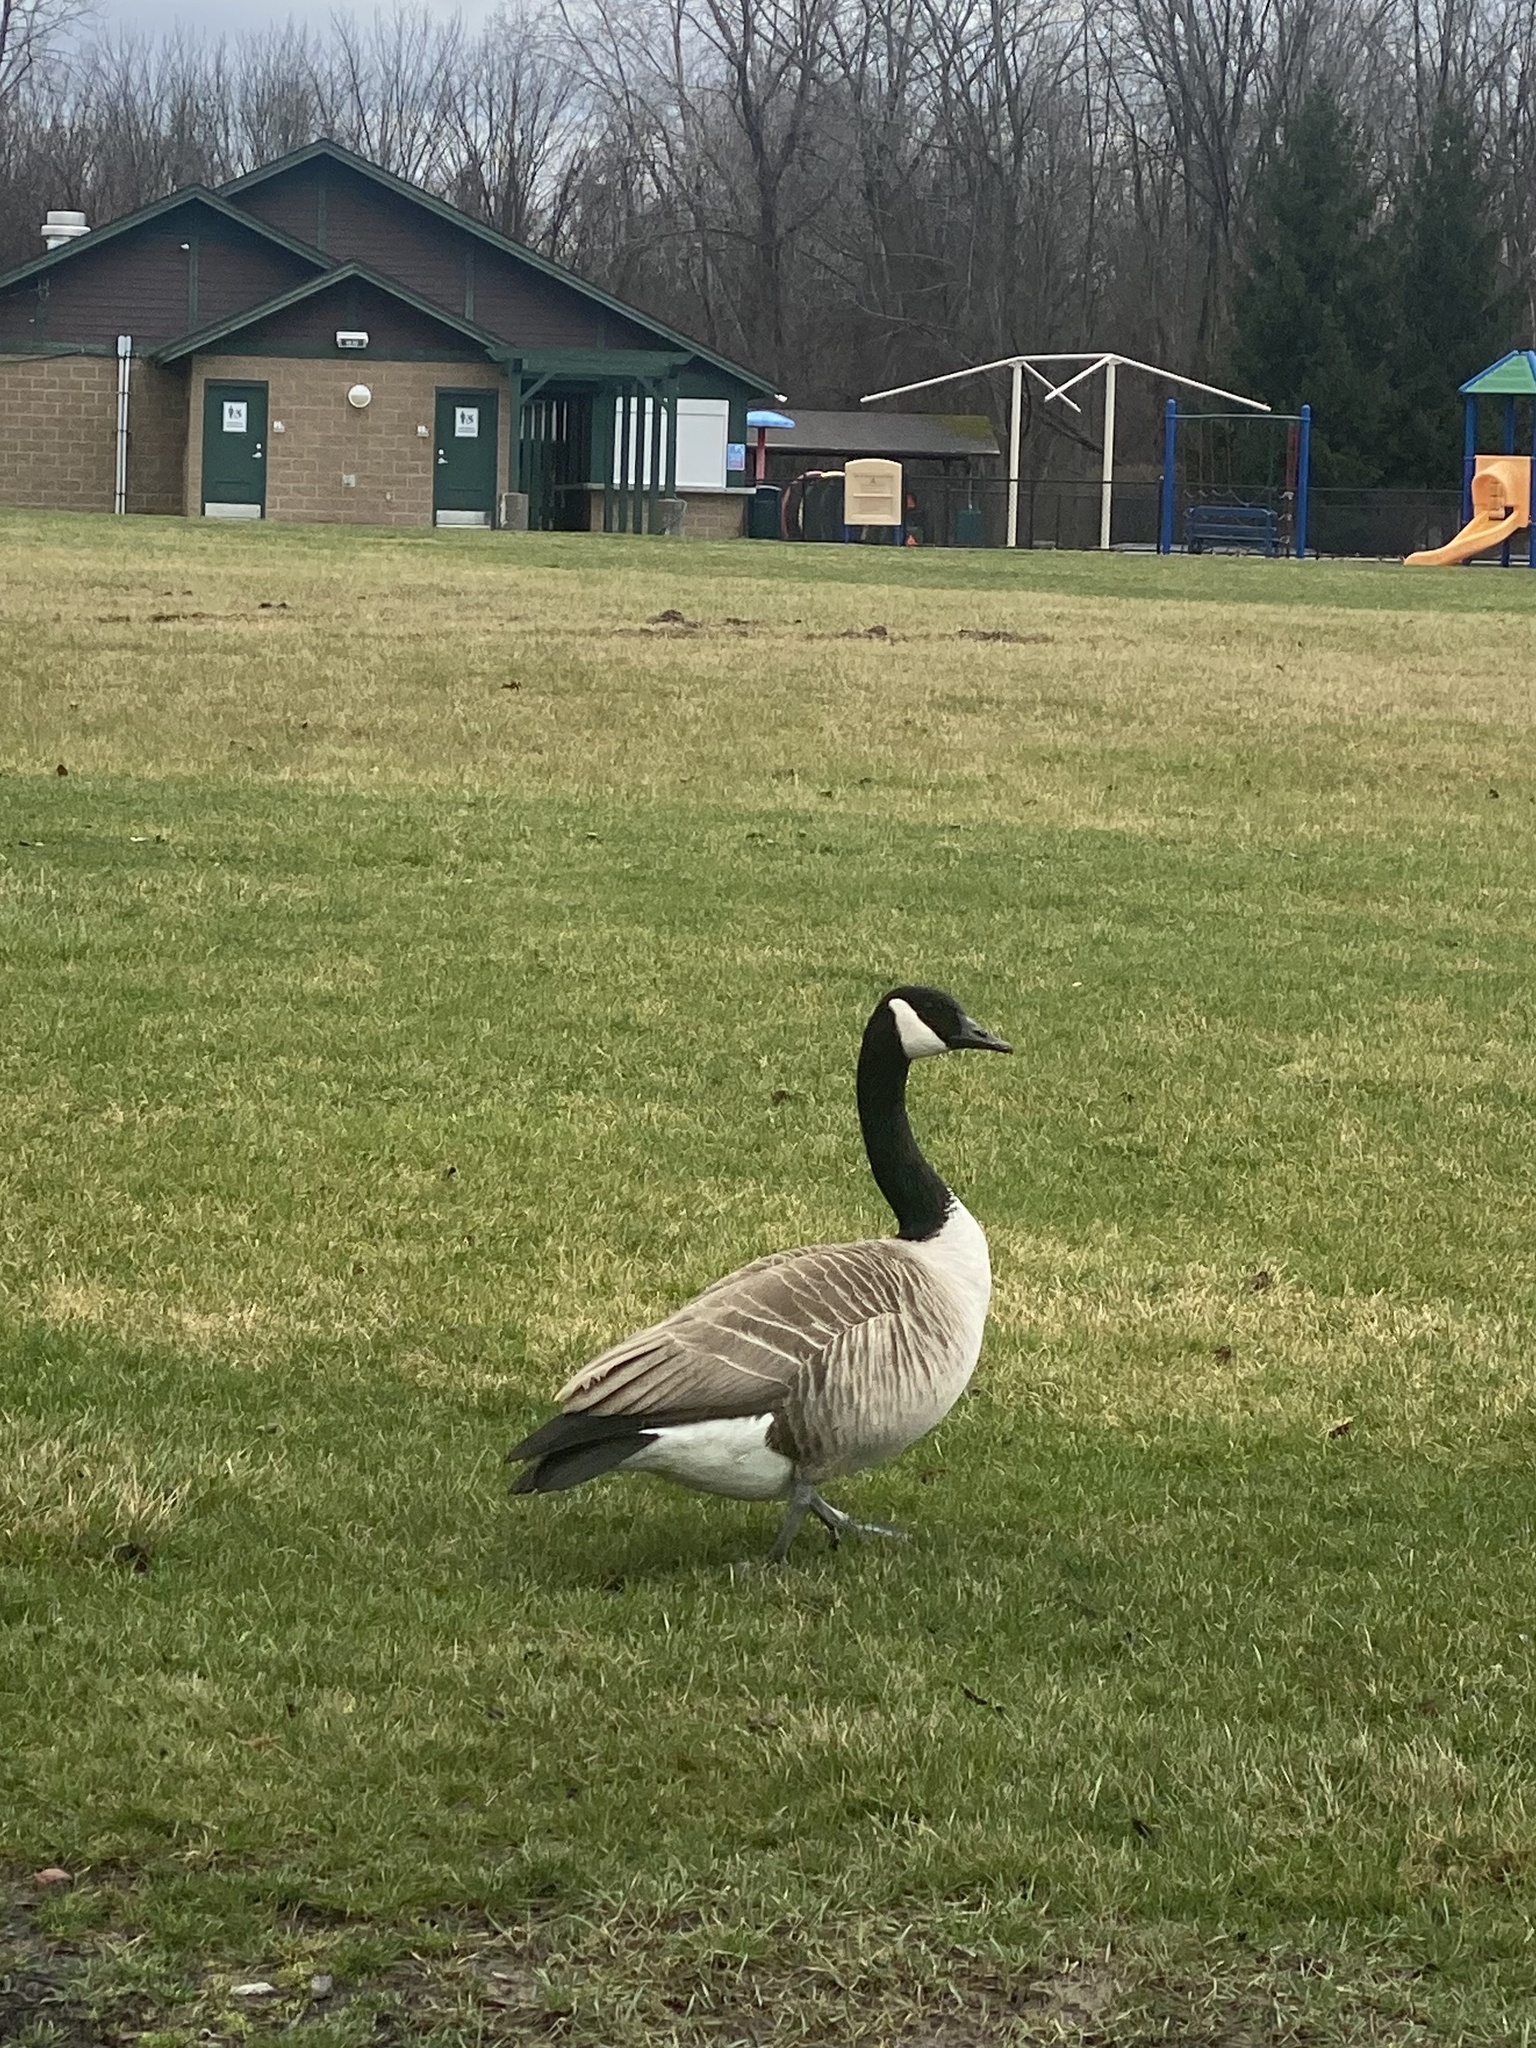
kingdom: Animalia
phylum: Chordata
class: Aves
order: Anseriformes
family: Anatidae
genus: Branta
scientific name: Branta canadensis
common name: Canada goose
